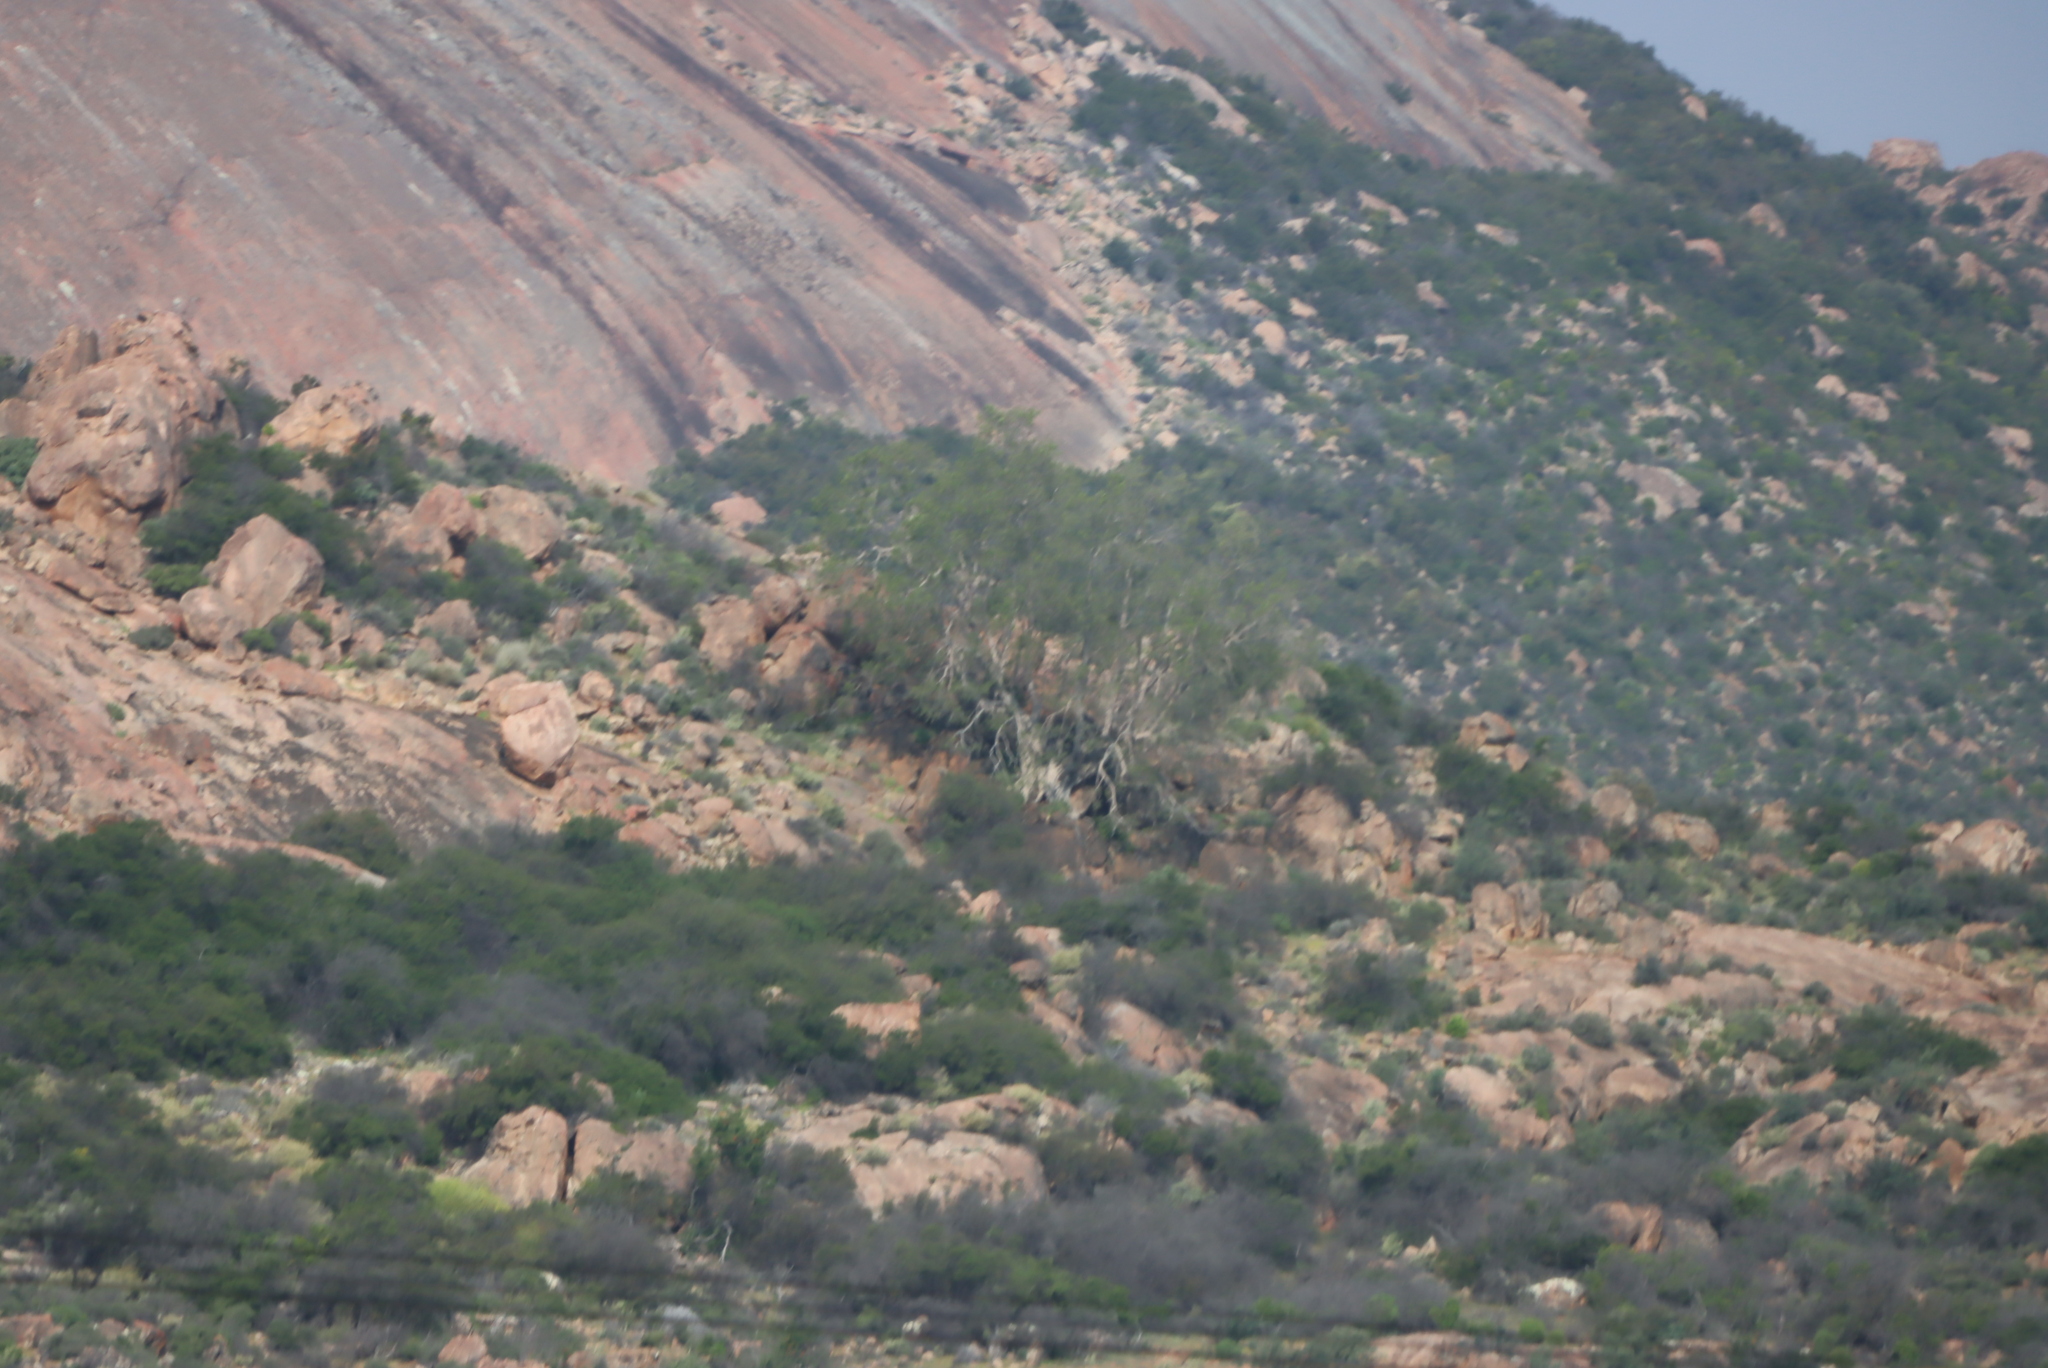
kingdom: Plantae
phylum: Tracheophyta
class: Magnoliopsida
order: Rosales
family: Moraceae
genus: Ficus
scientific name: Ficus cordata
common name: Namaqua rock fig
